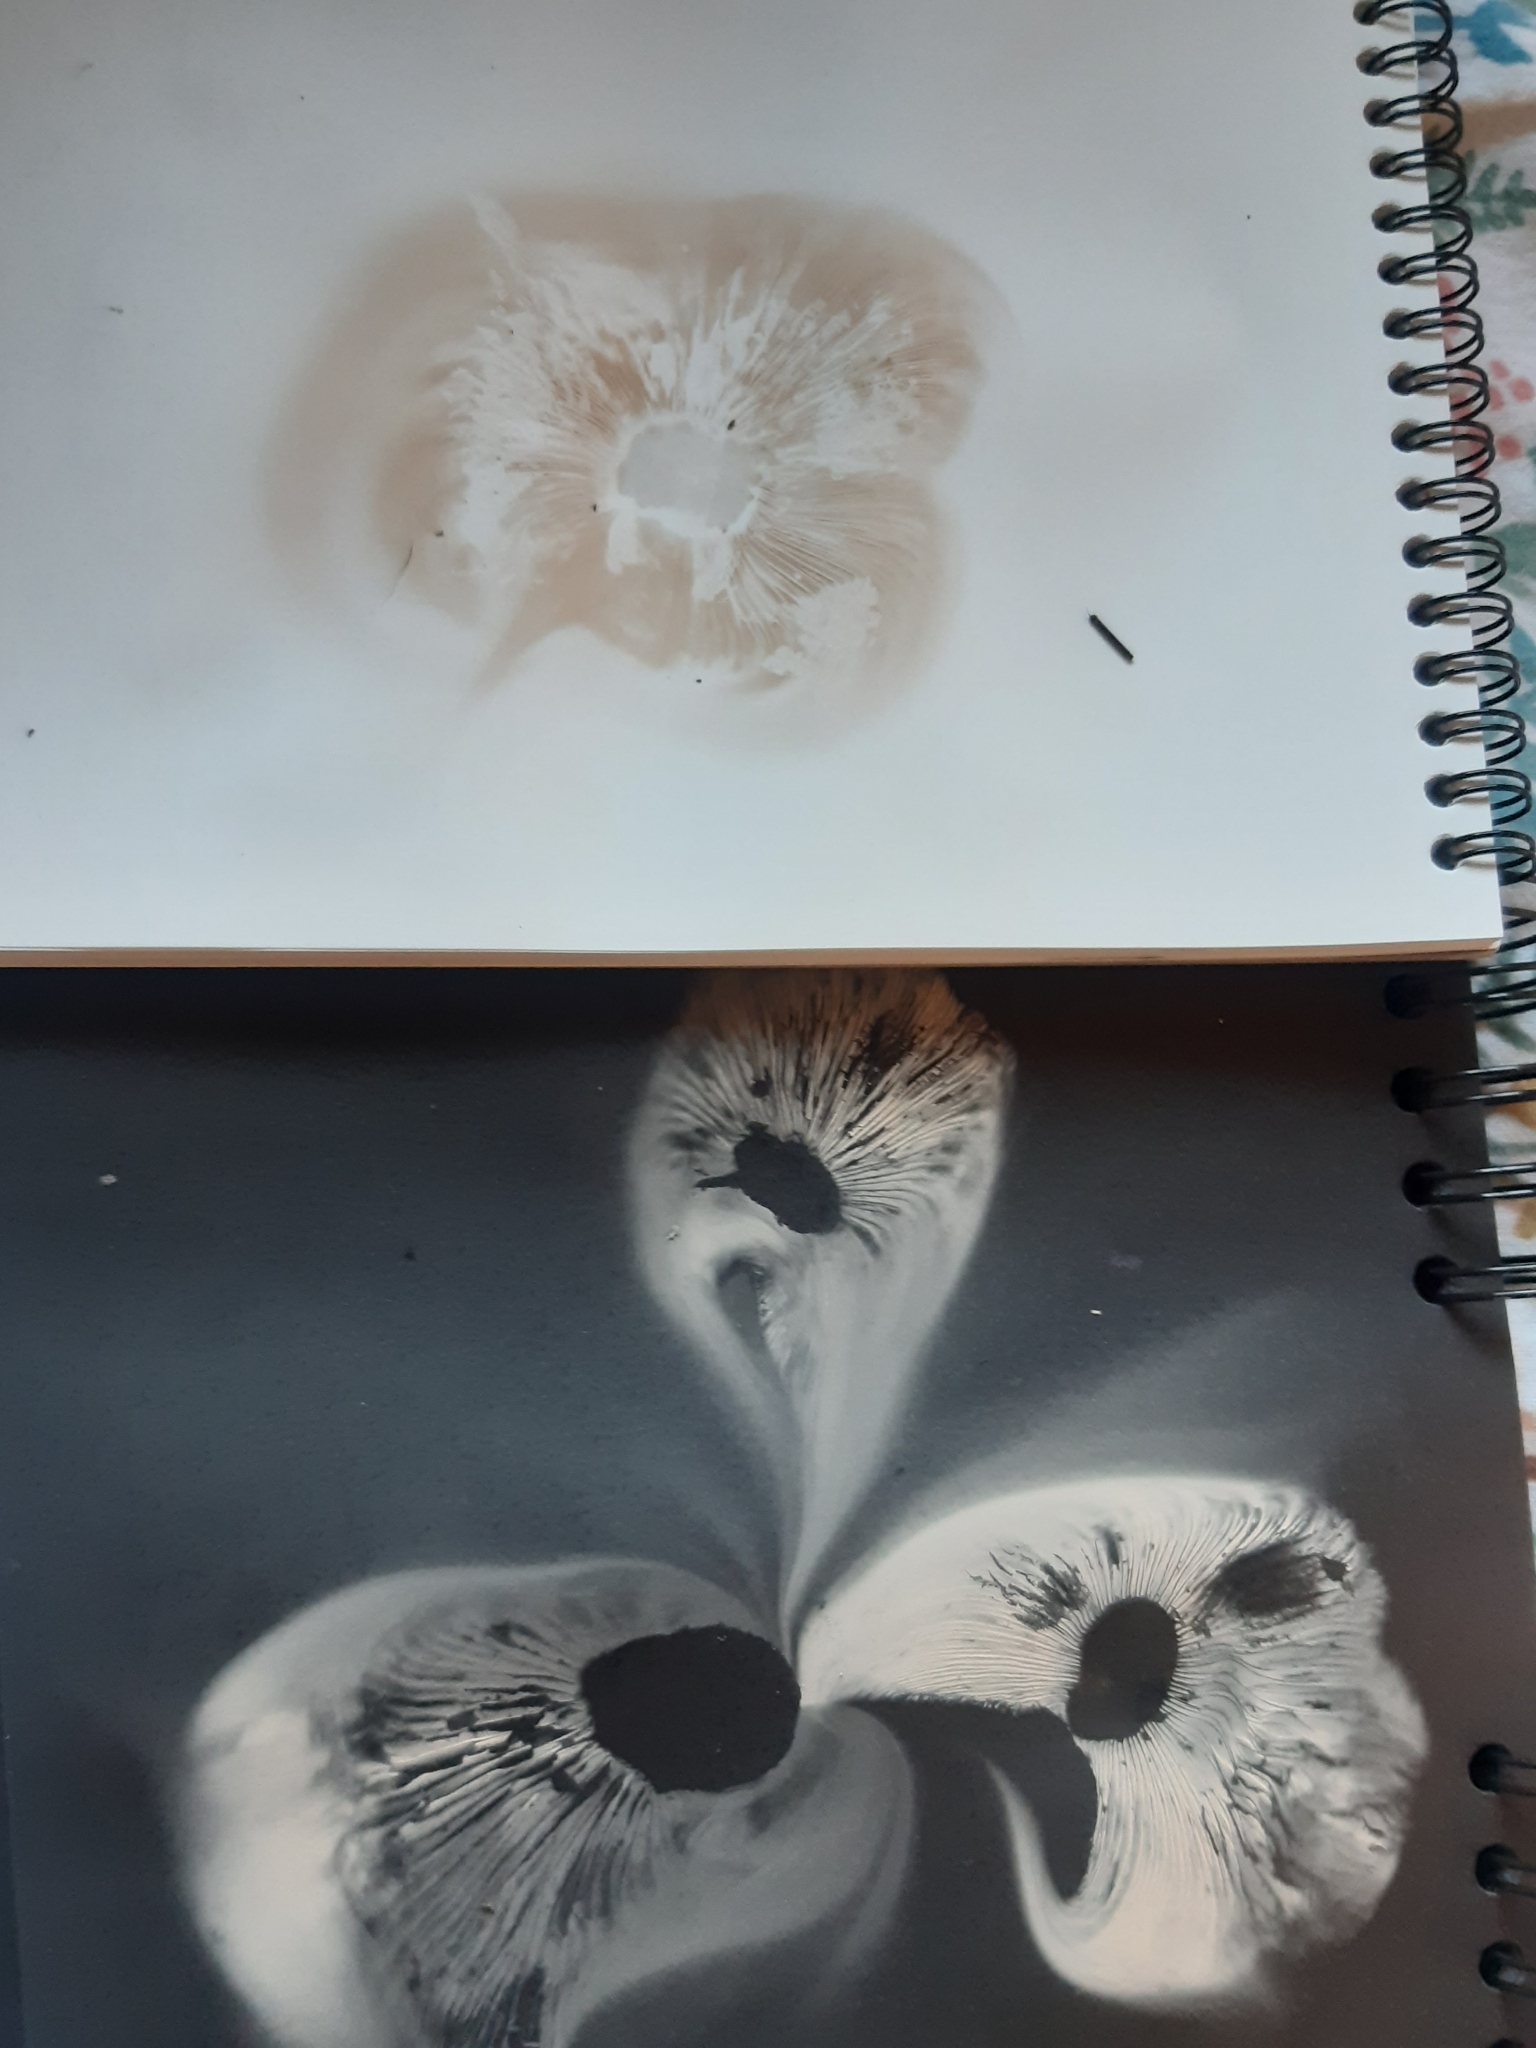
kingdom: Fungi
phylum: Basidiomycota
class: Agaricomycetes
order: Agaricales
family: Tricholomataceae
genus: Collybia
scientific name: Collybia
